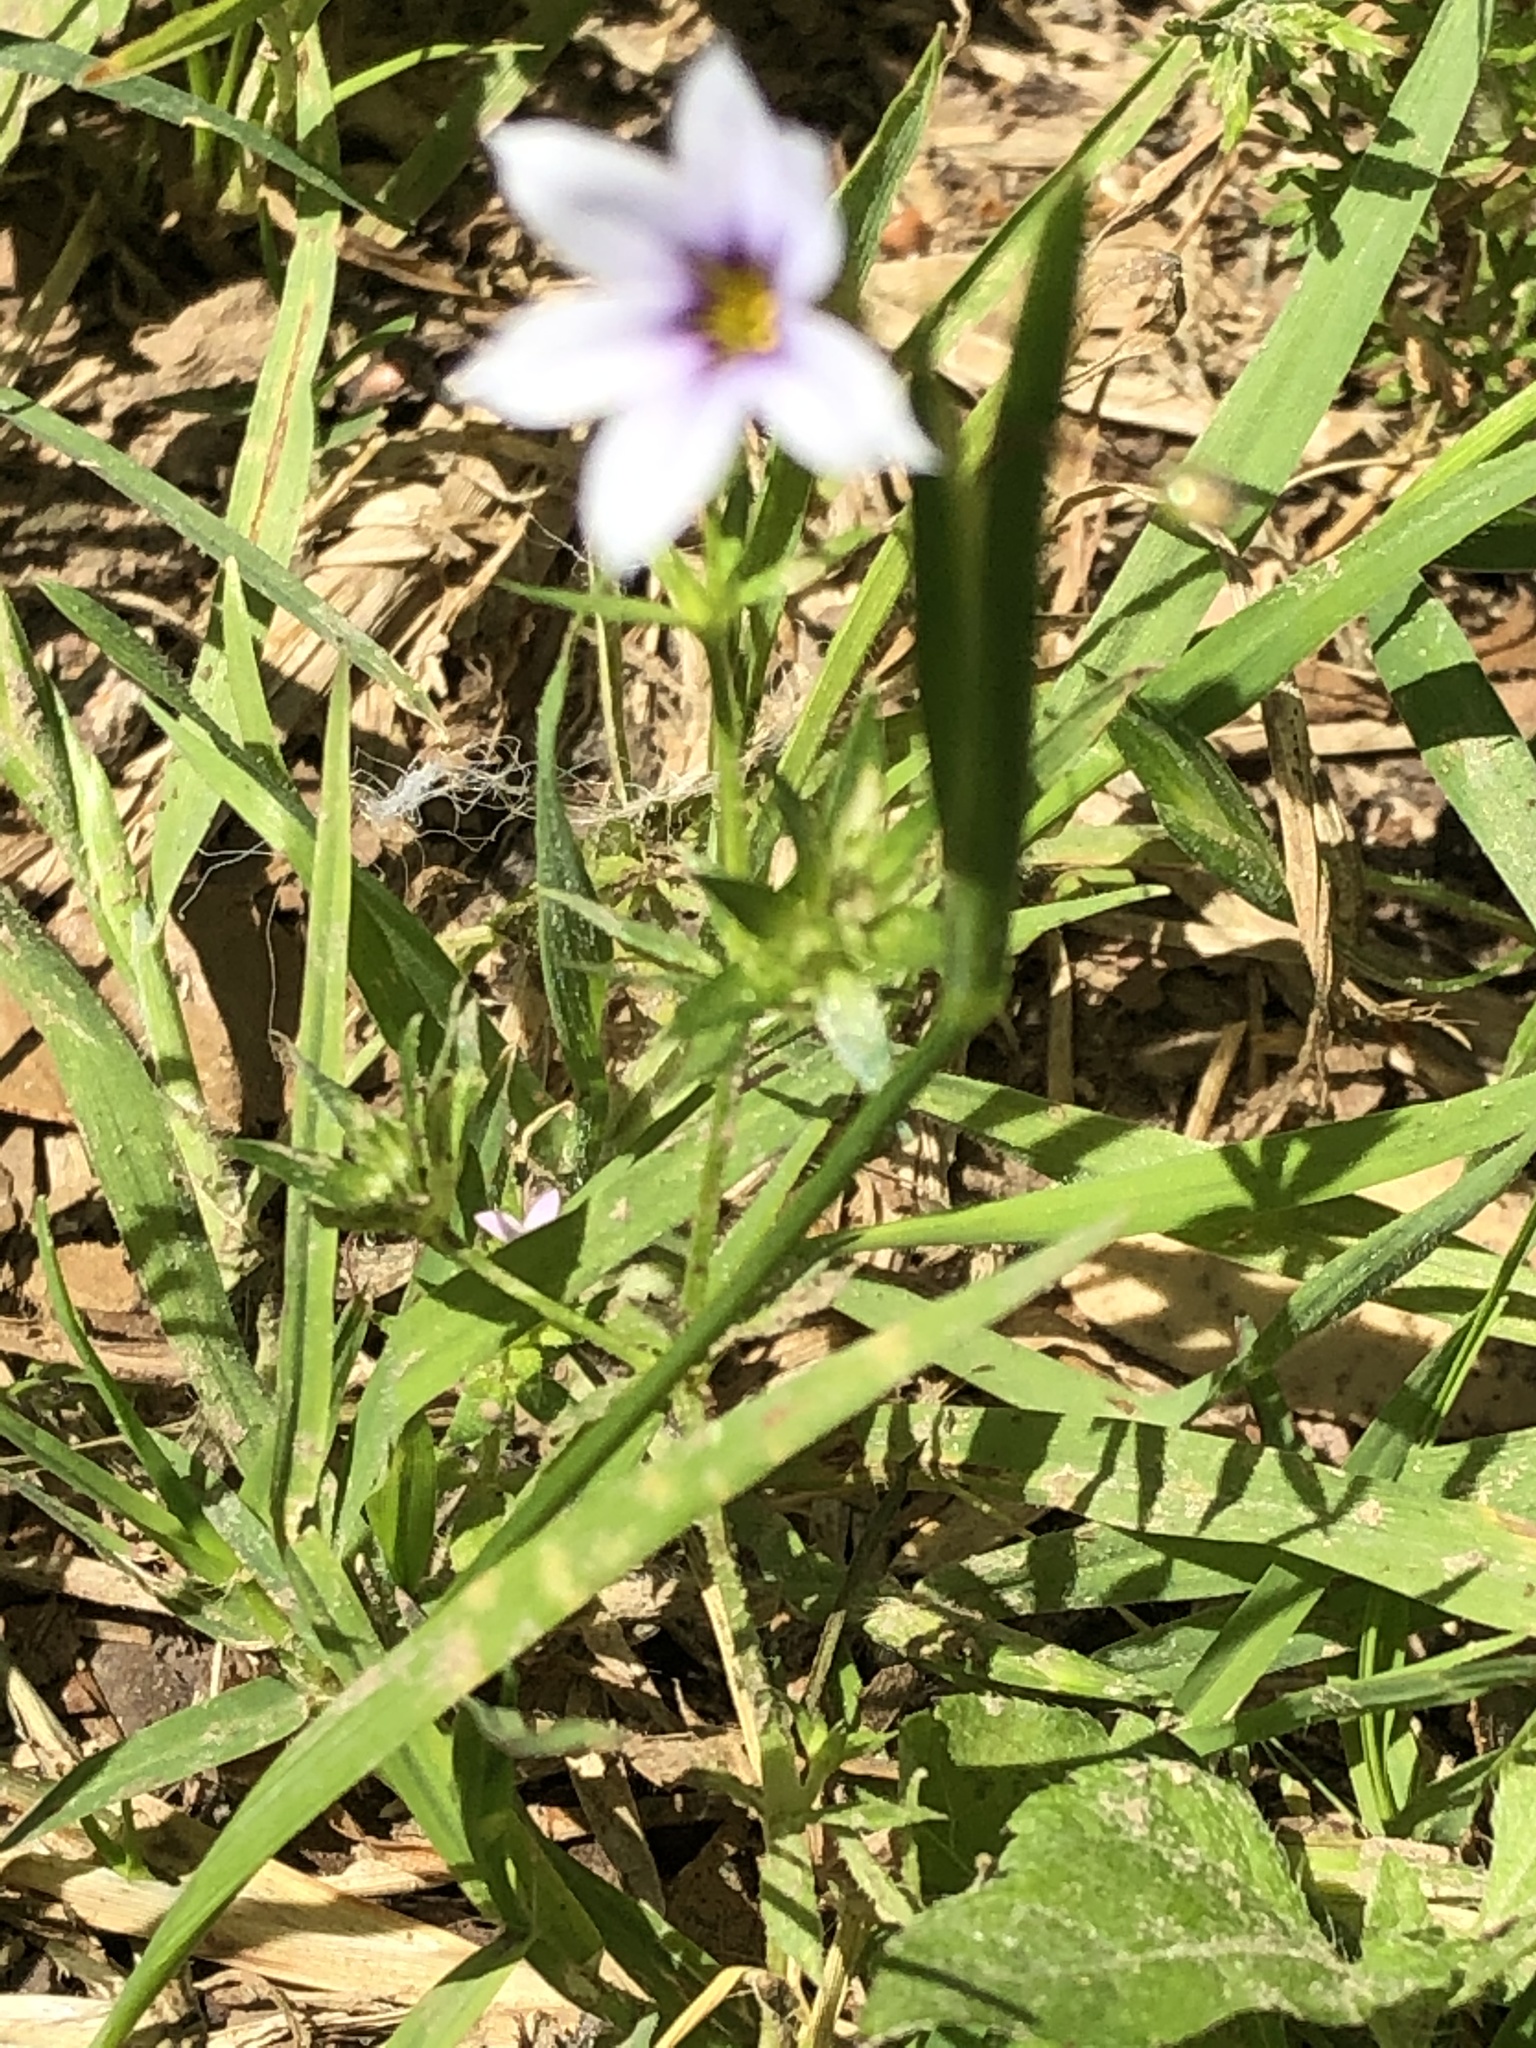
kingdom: Plantae
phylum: Tracheophyta
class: Liliopsida
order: Asparagales
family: Iridaceae
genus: Sisyrinchium
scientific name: Sisyrinchium micranthum
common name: Bermuda pigroot
